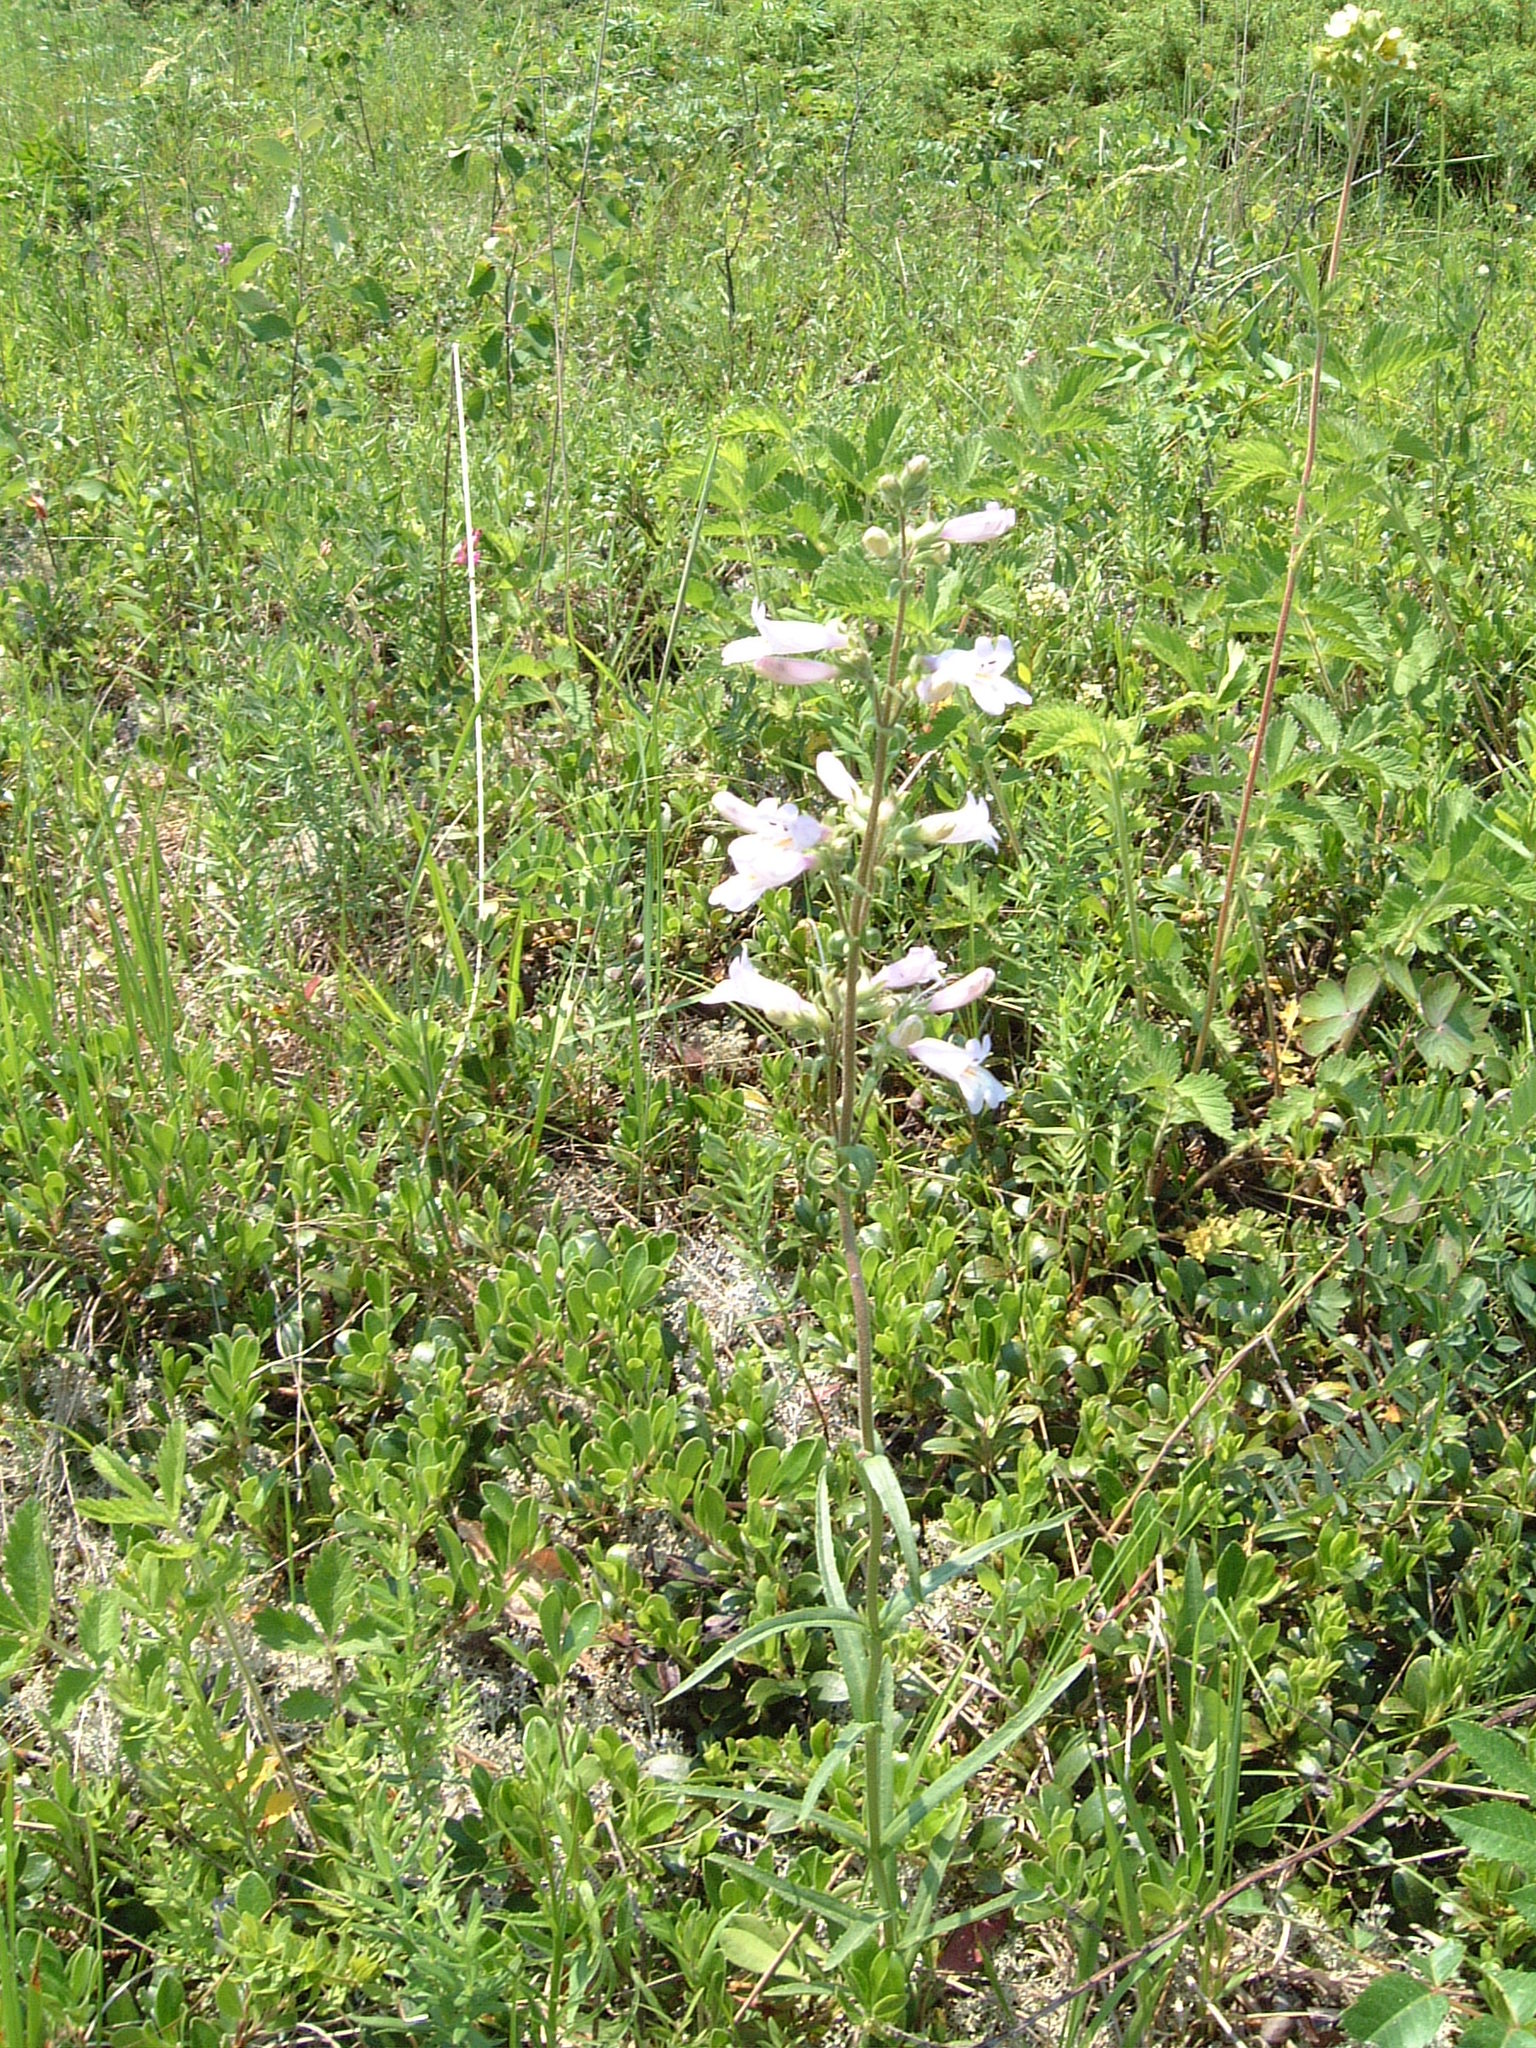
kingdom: Plantae
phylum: Tracheophyta
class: Magnoliopsida
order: Lamiales
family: Plantaginaceae
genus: Penstemon
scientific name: Penstemon gracilis
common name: Slender beardtongue
